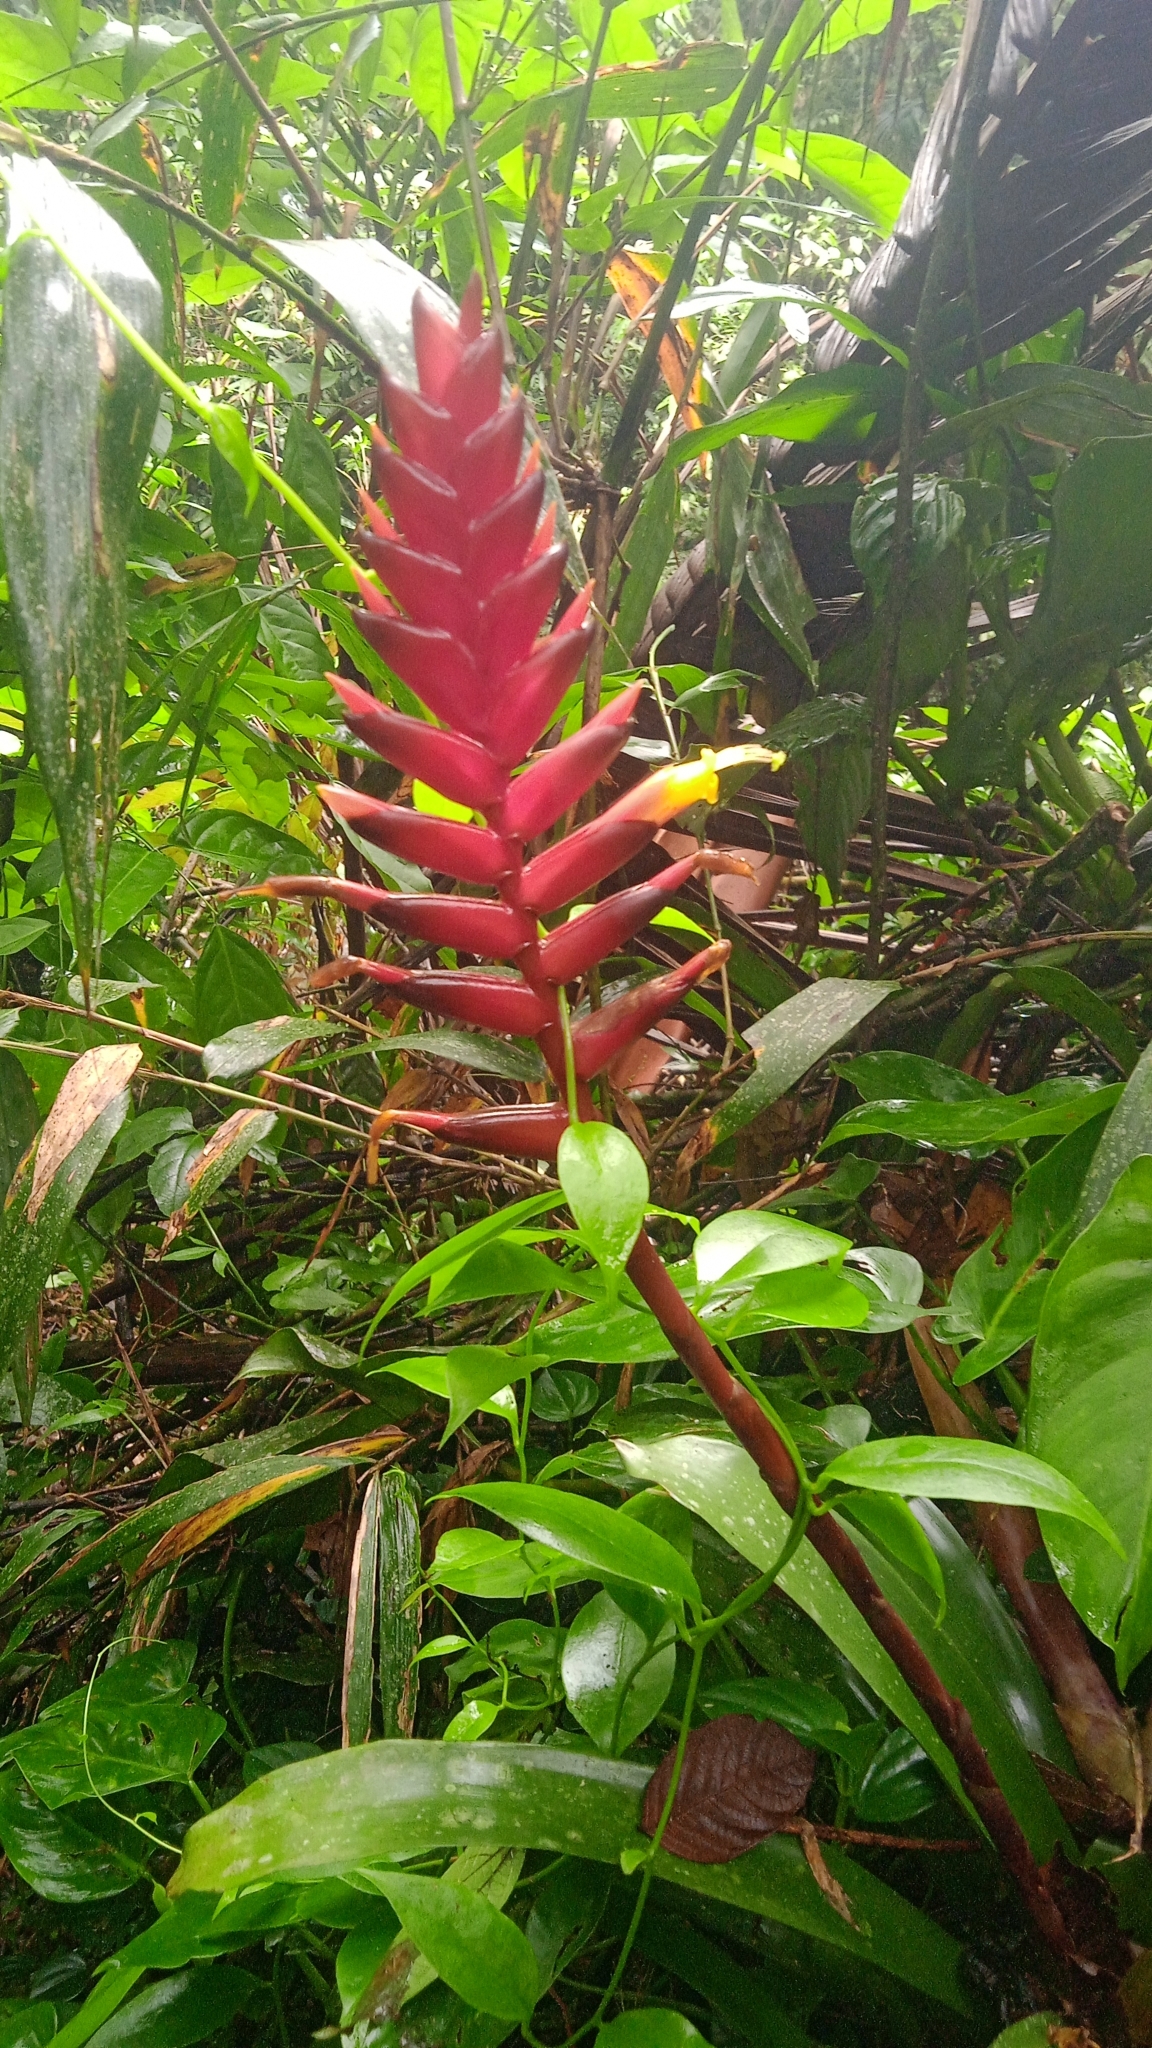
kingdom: Plantae
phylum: Tracheophyta
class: Liliopsida
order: Poales
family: Bromeliaceae
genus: Vriesea
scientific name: Vriesea gradata
